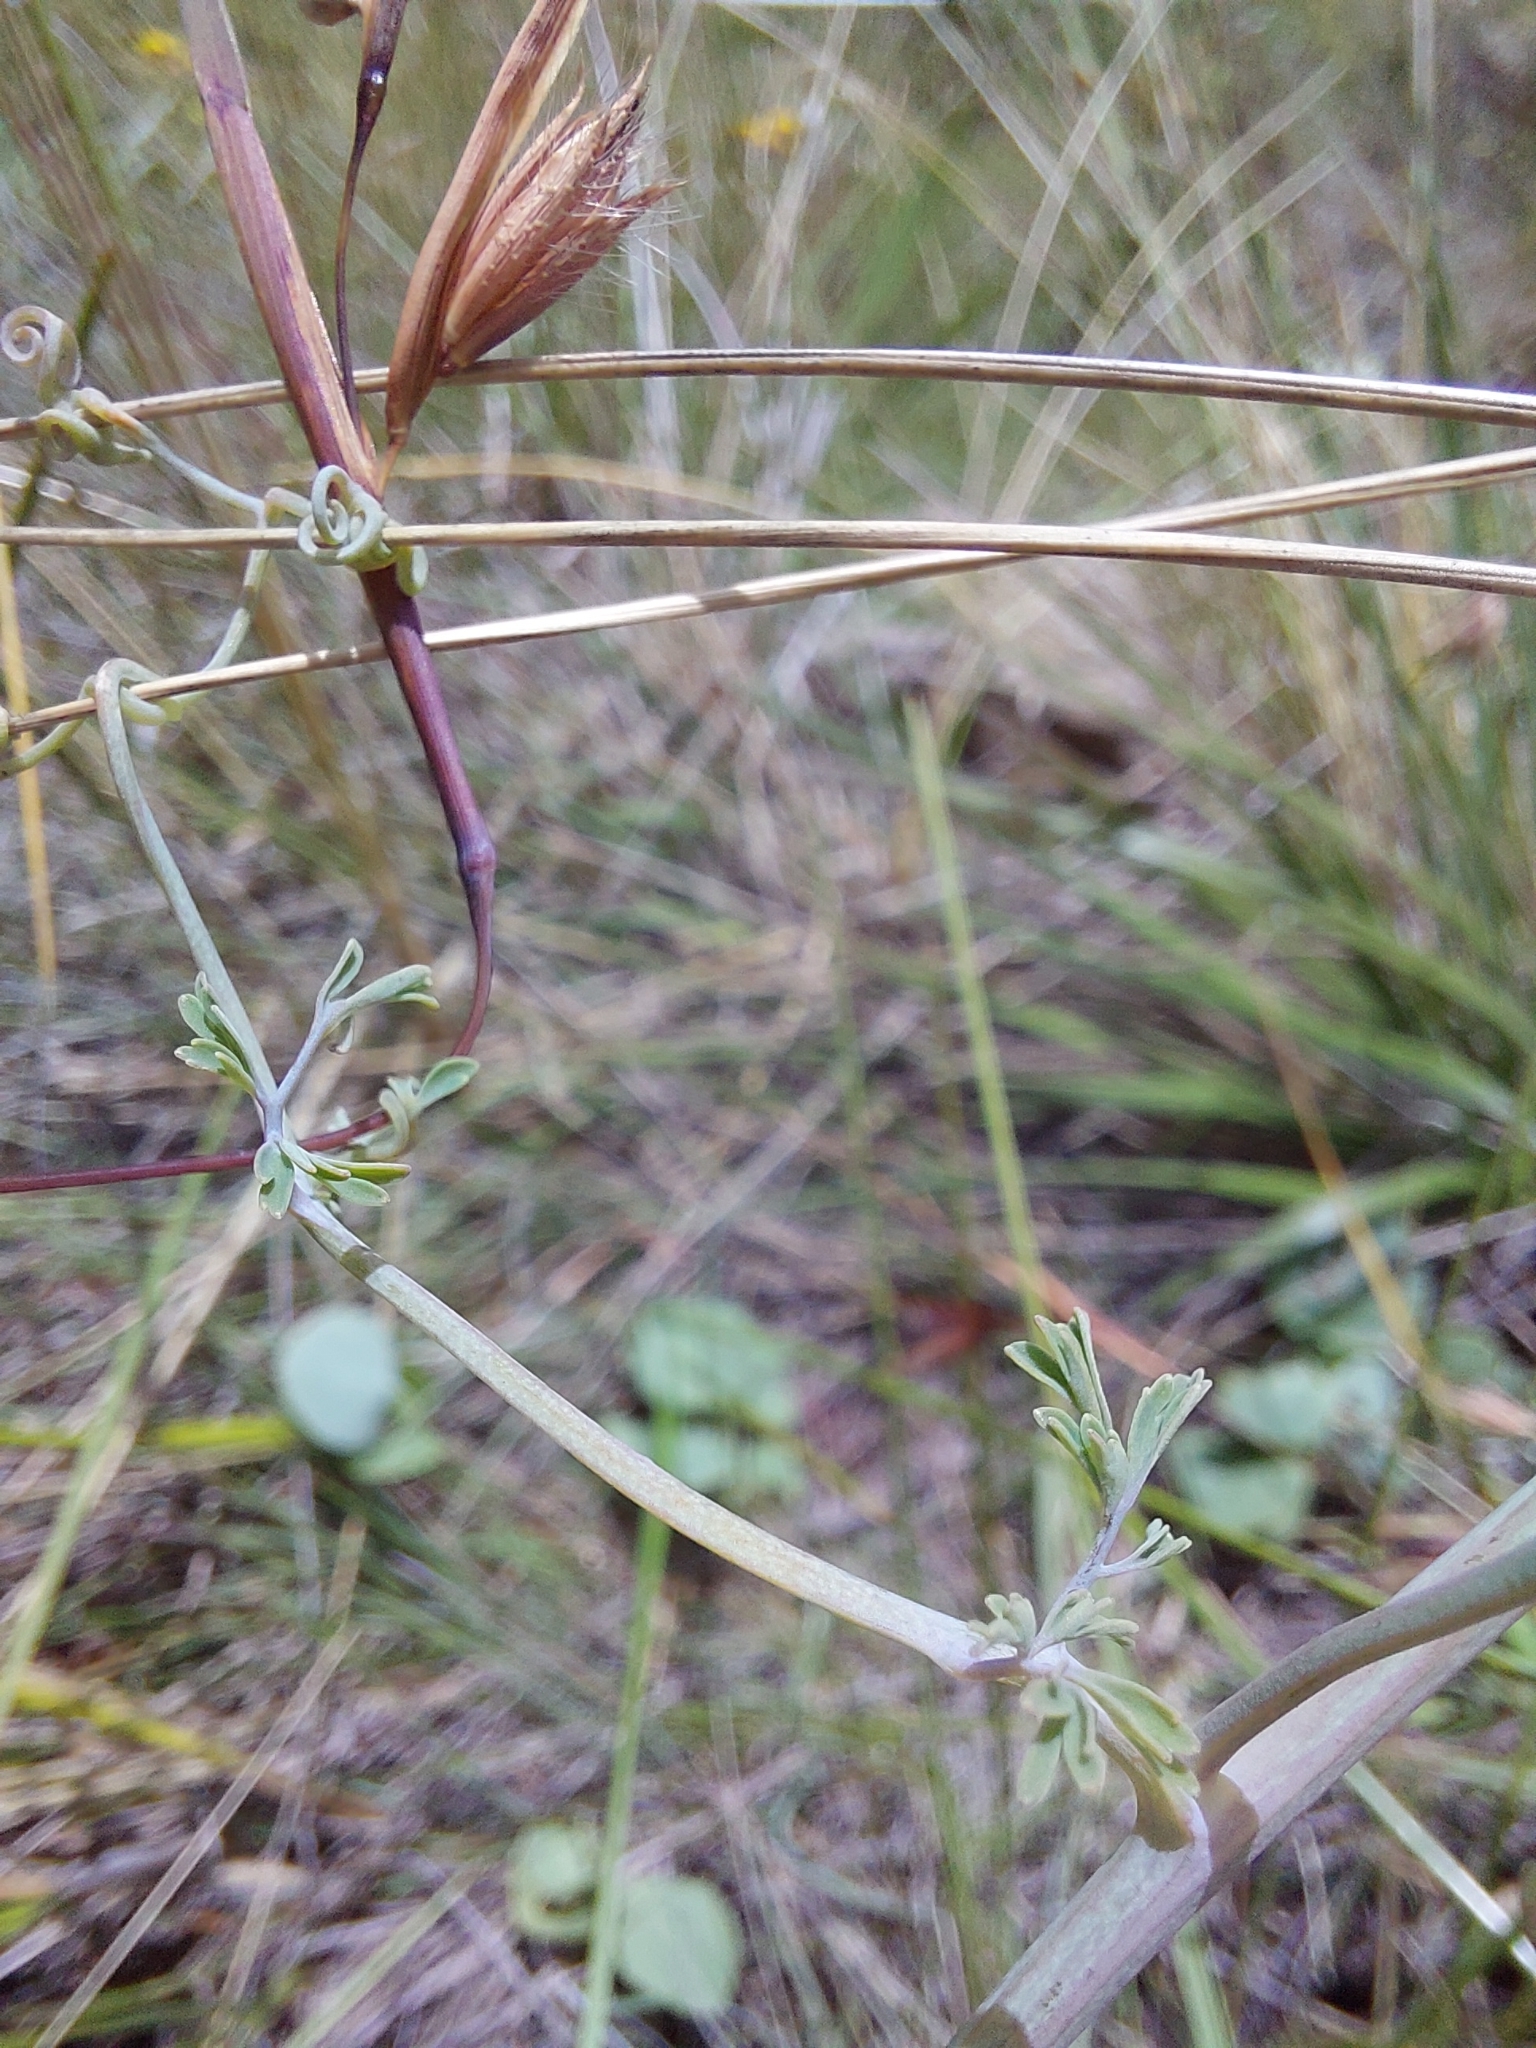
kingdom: Plantae
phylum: Tracheophyta
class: Magnoliopsida
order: Ranunculales
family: Papaveraceae
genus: Cysticapnos
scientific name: Cysticapnos pruinosa
